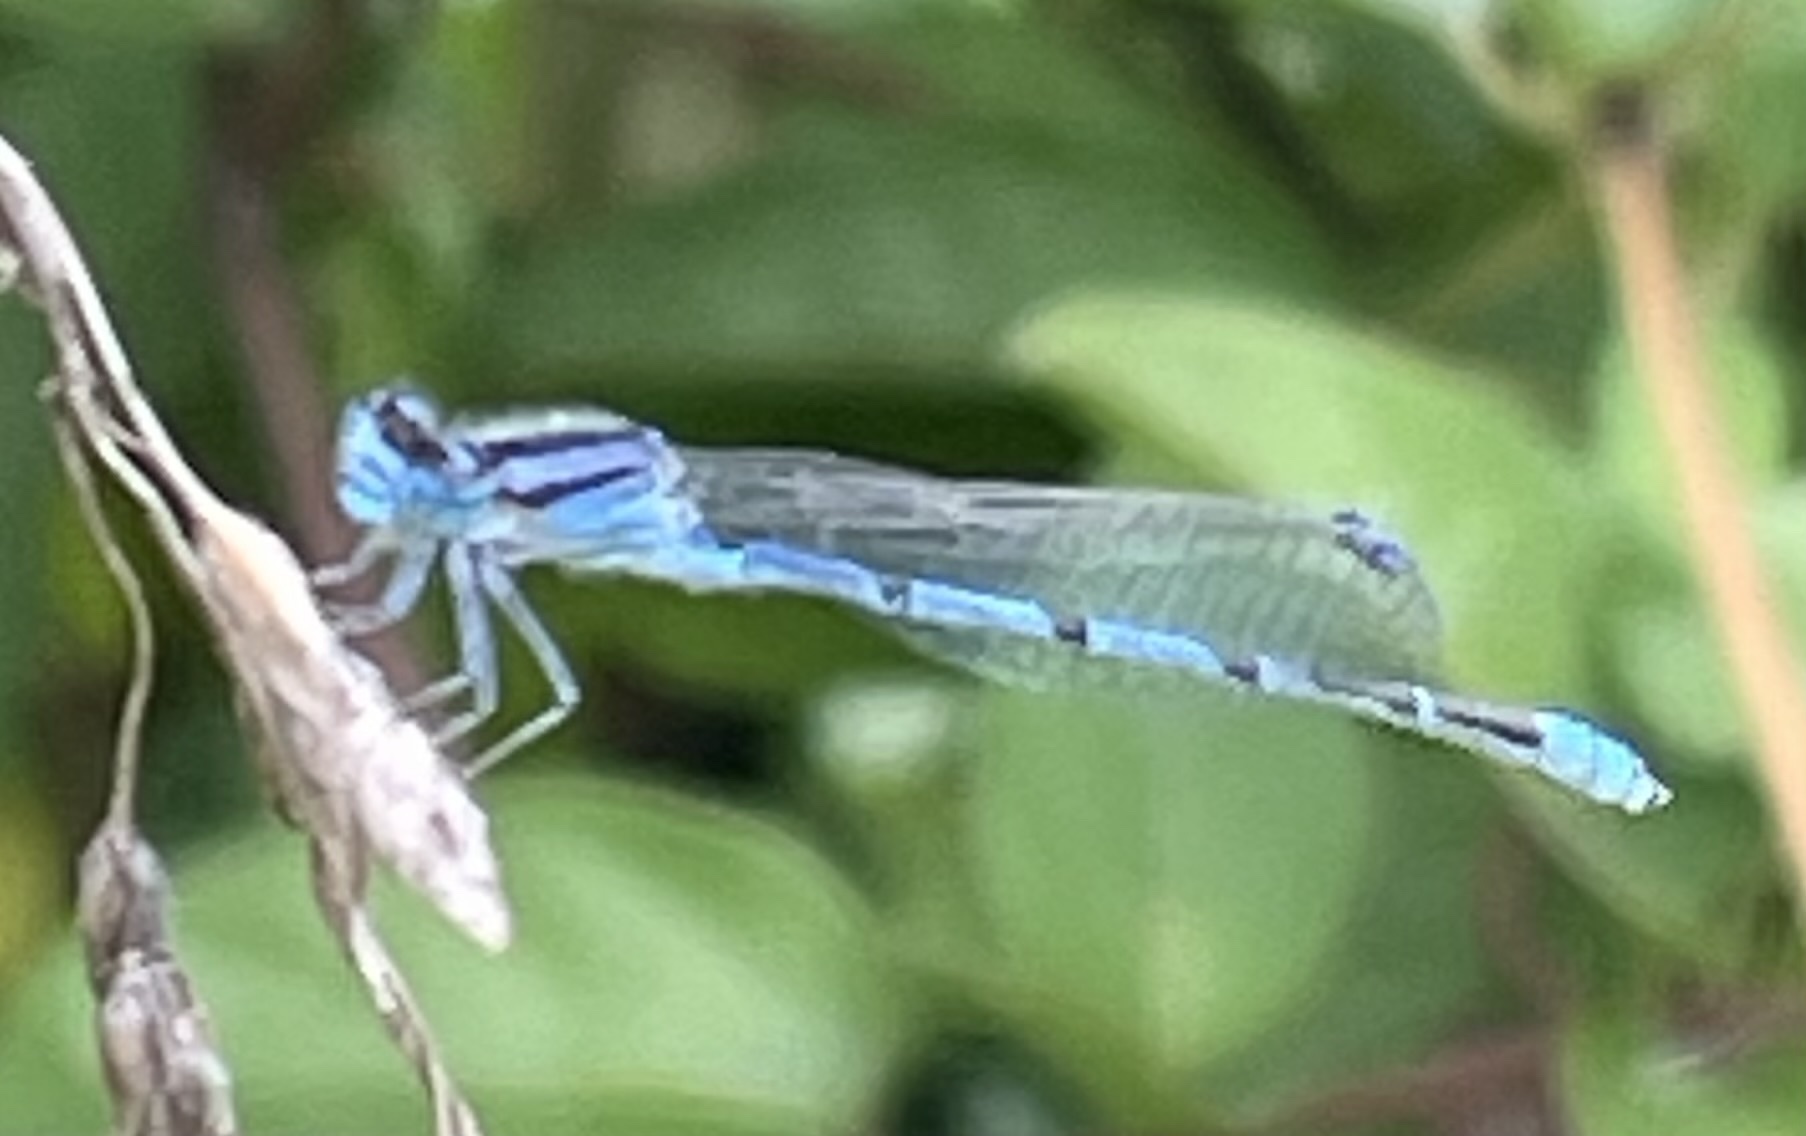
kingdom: Animalia
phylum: Arthropoda
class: Insecta
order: Odonata
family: Coenagrionidae
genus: Enallagma
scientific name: Enallagma civile
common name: Damselfly
